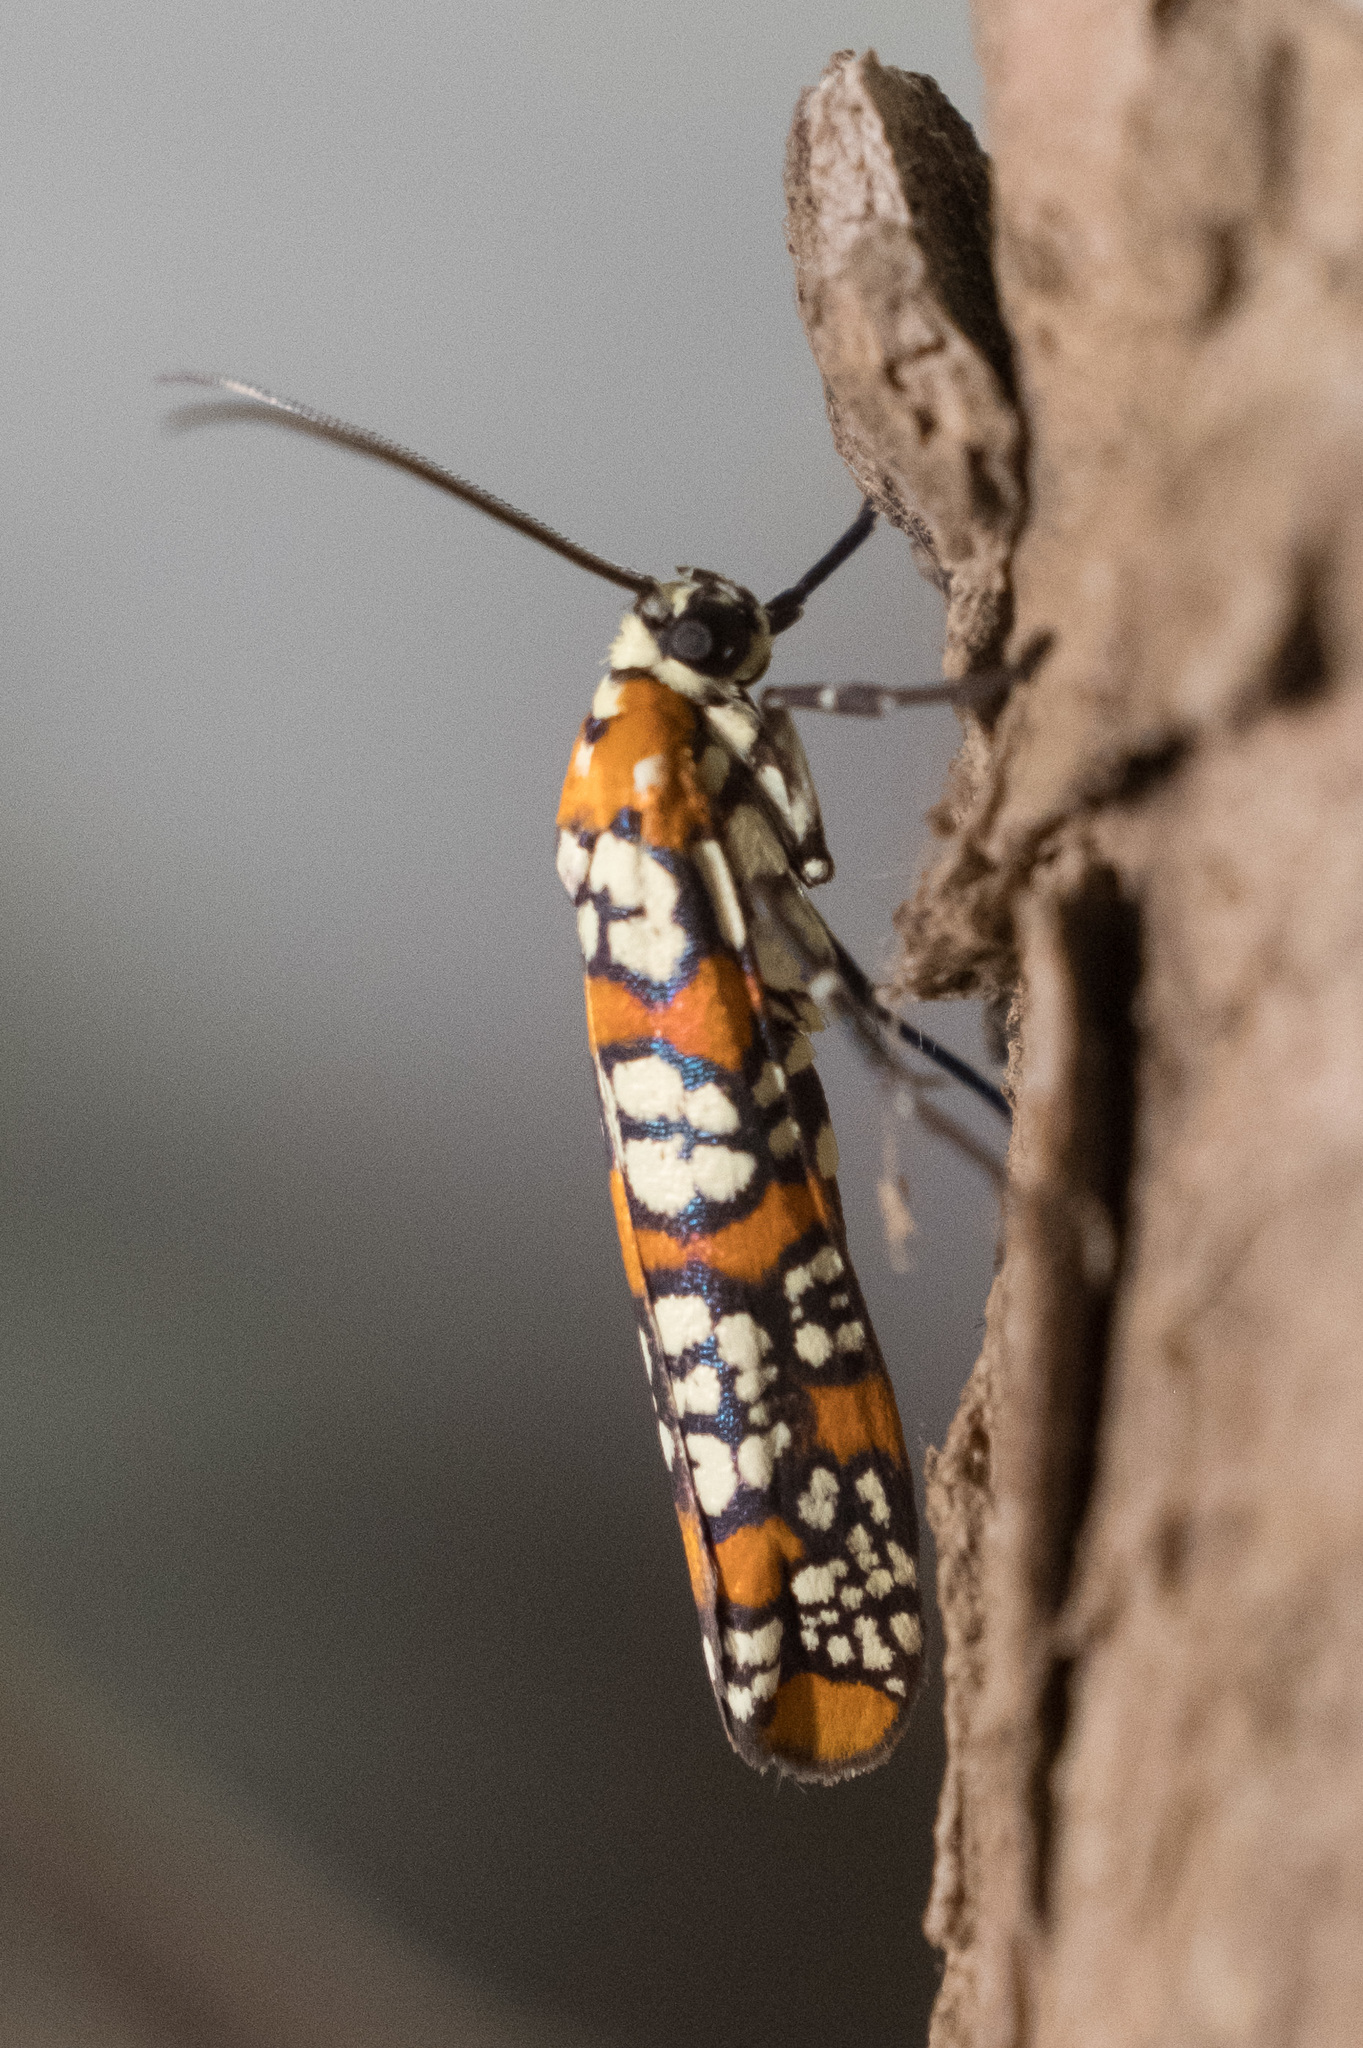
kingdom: Animalia
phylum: Arthropoda
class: Insecta
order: Lepidoptera
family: Attevidae
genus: Atteva
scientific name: Atteva punctella
